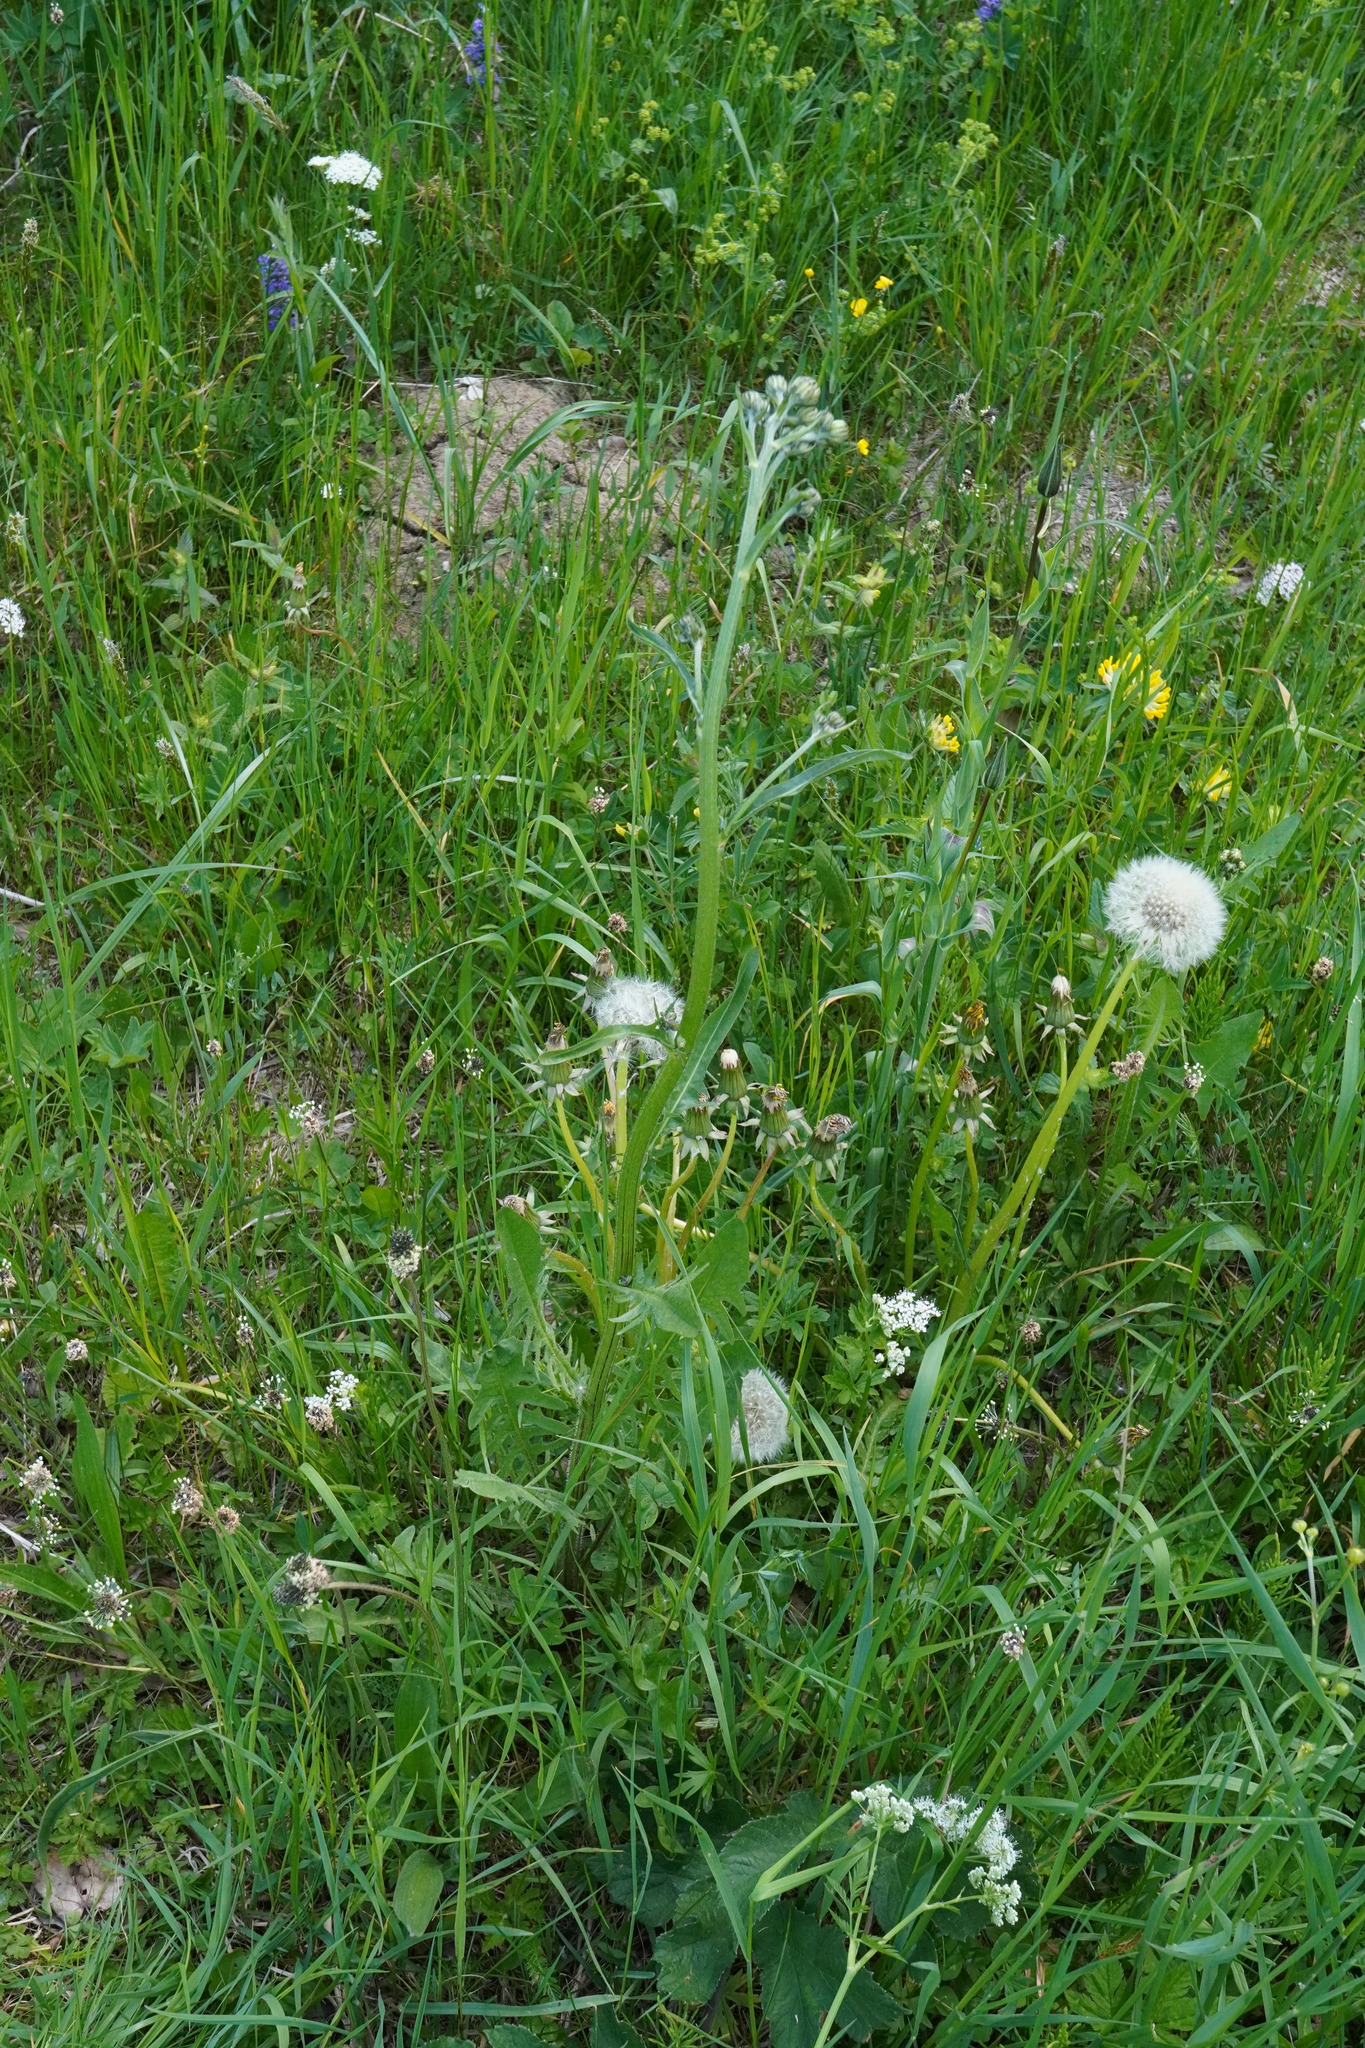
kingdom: Plantae
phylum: Tracheophyta
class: Magnoliopsida
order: Asterales
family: Asteraceae
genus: Crepis
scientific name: Crepis biennis
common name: Rough hawk's-beard
